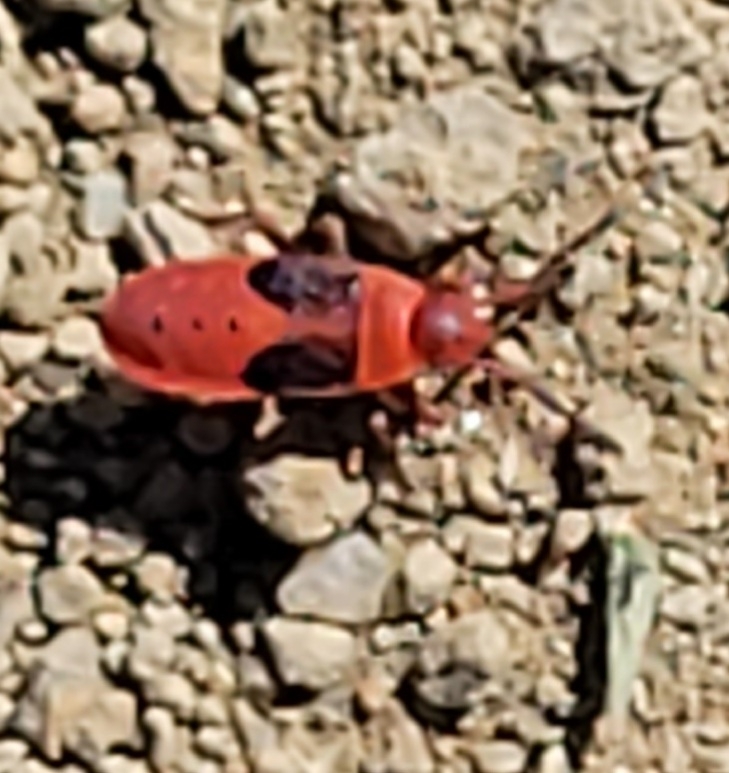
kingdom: Animalia
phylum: Arthropoda
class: Insecta
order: Hemiptera
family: Pyrrhocoridae
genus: Scantius
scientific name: Scantius aegyptius
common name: Red bug
